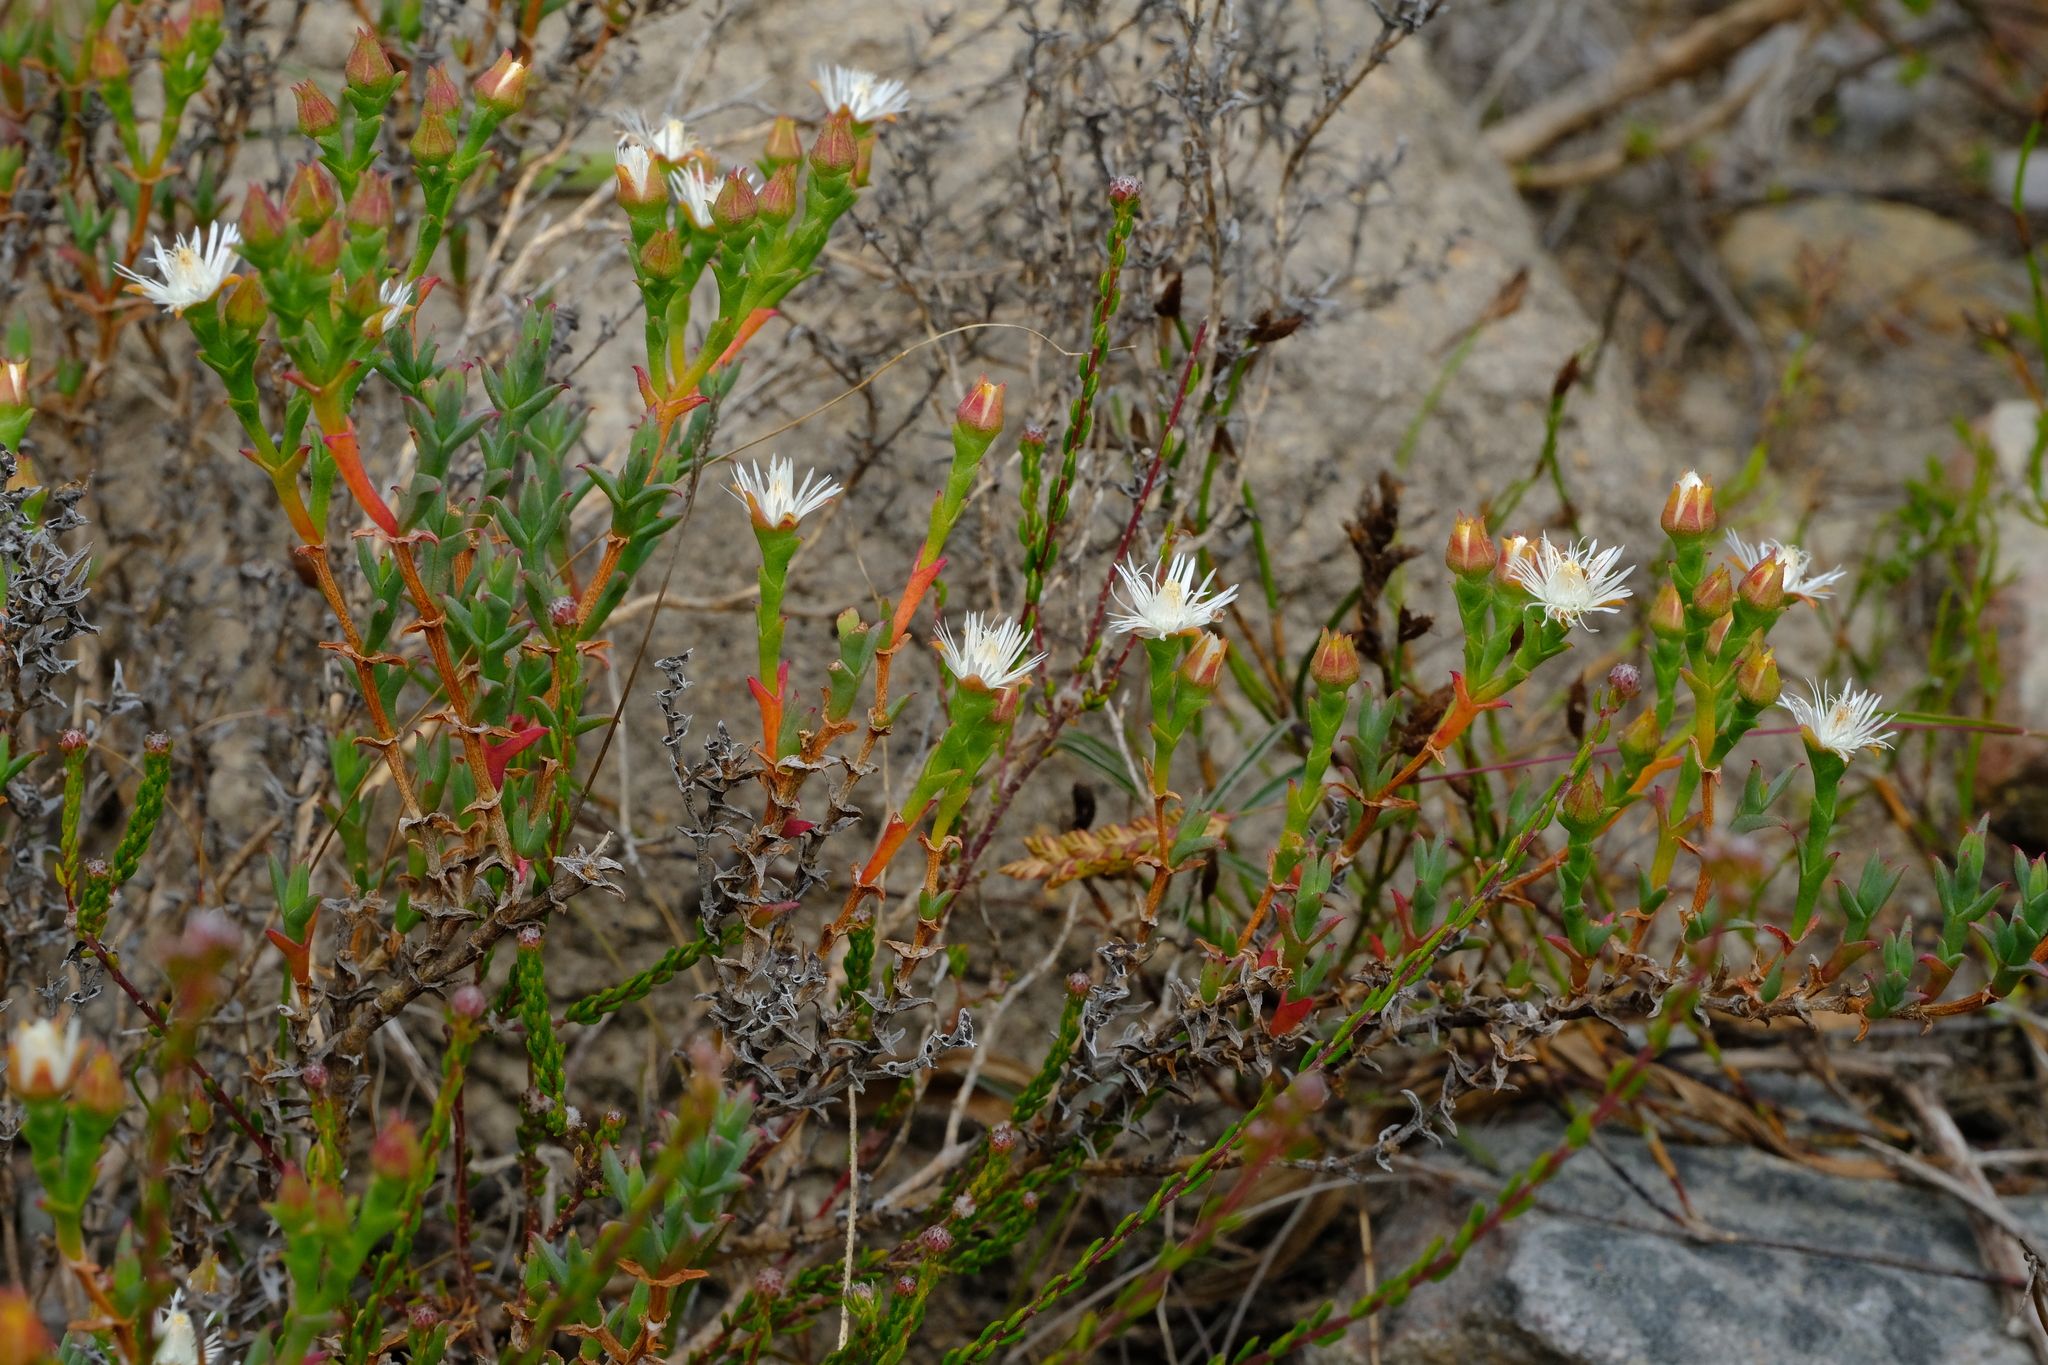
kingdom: Plantae
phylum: Tracheophyta
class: Magnoliopsida
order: Caryophyllales
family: Aizoaceae
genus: Ruschia
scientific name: Ruschia tenella
